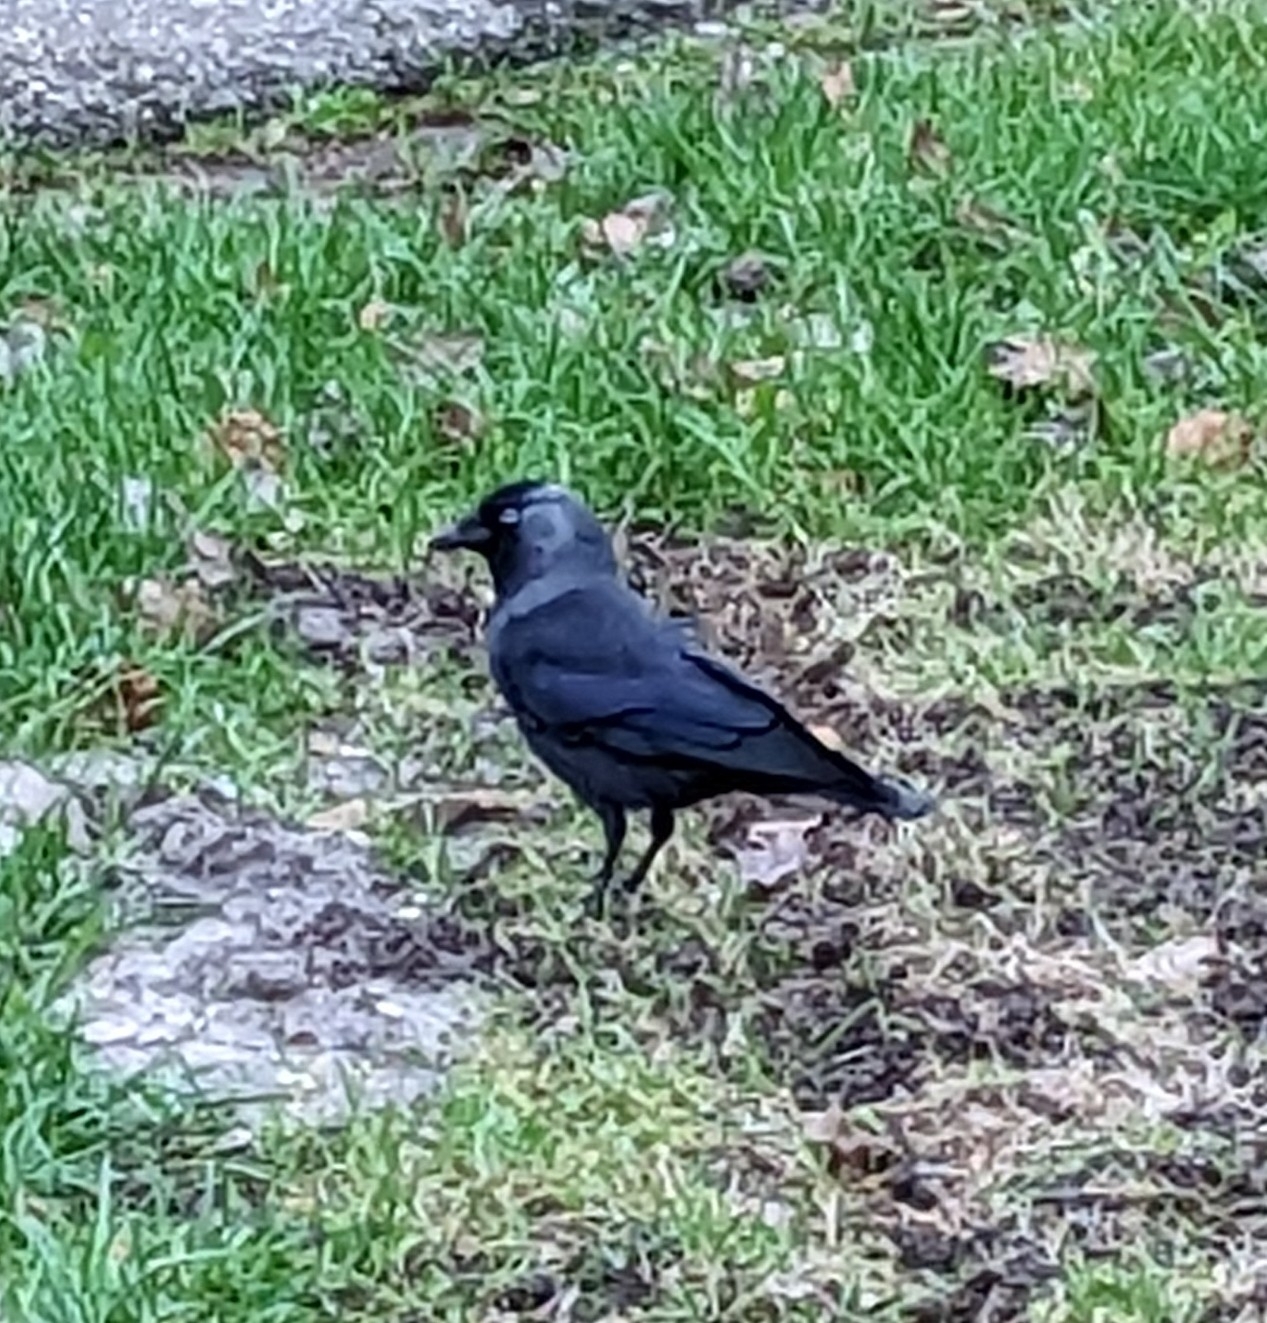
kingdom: Animalia
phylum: Chordata
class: Aves
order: Passeriformes
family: Corvidae
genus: Coloeus
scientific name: Coloeus monedula
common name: Western jackdaw
